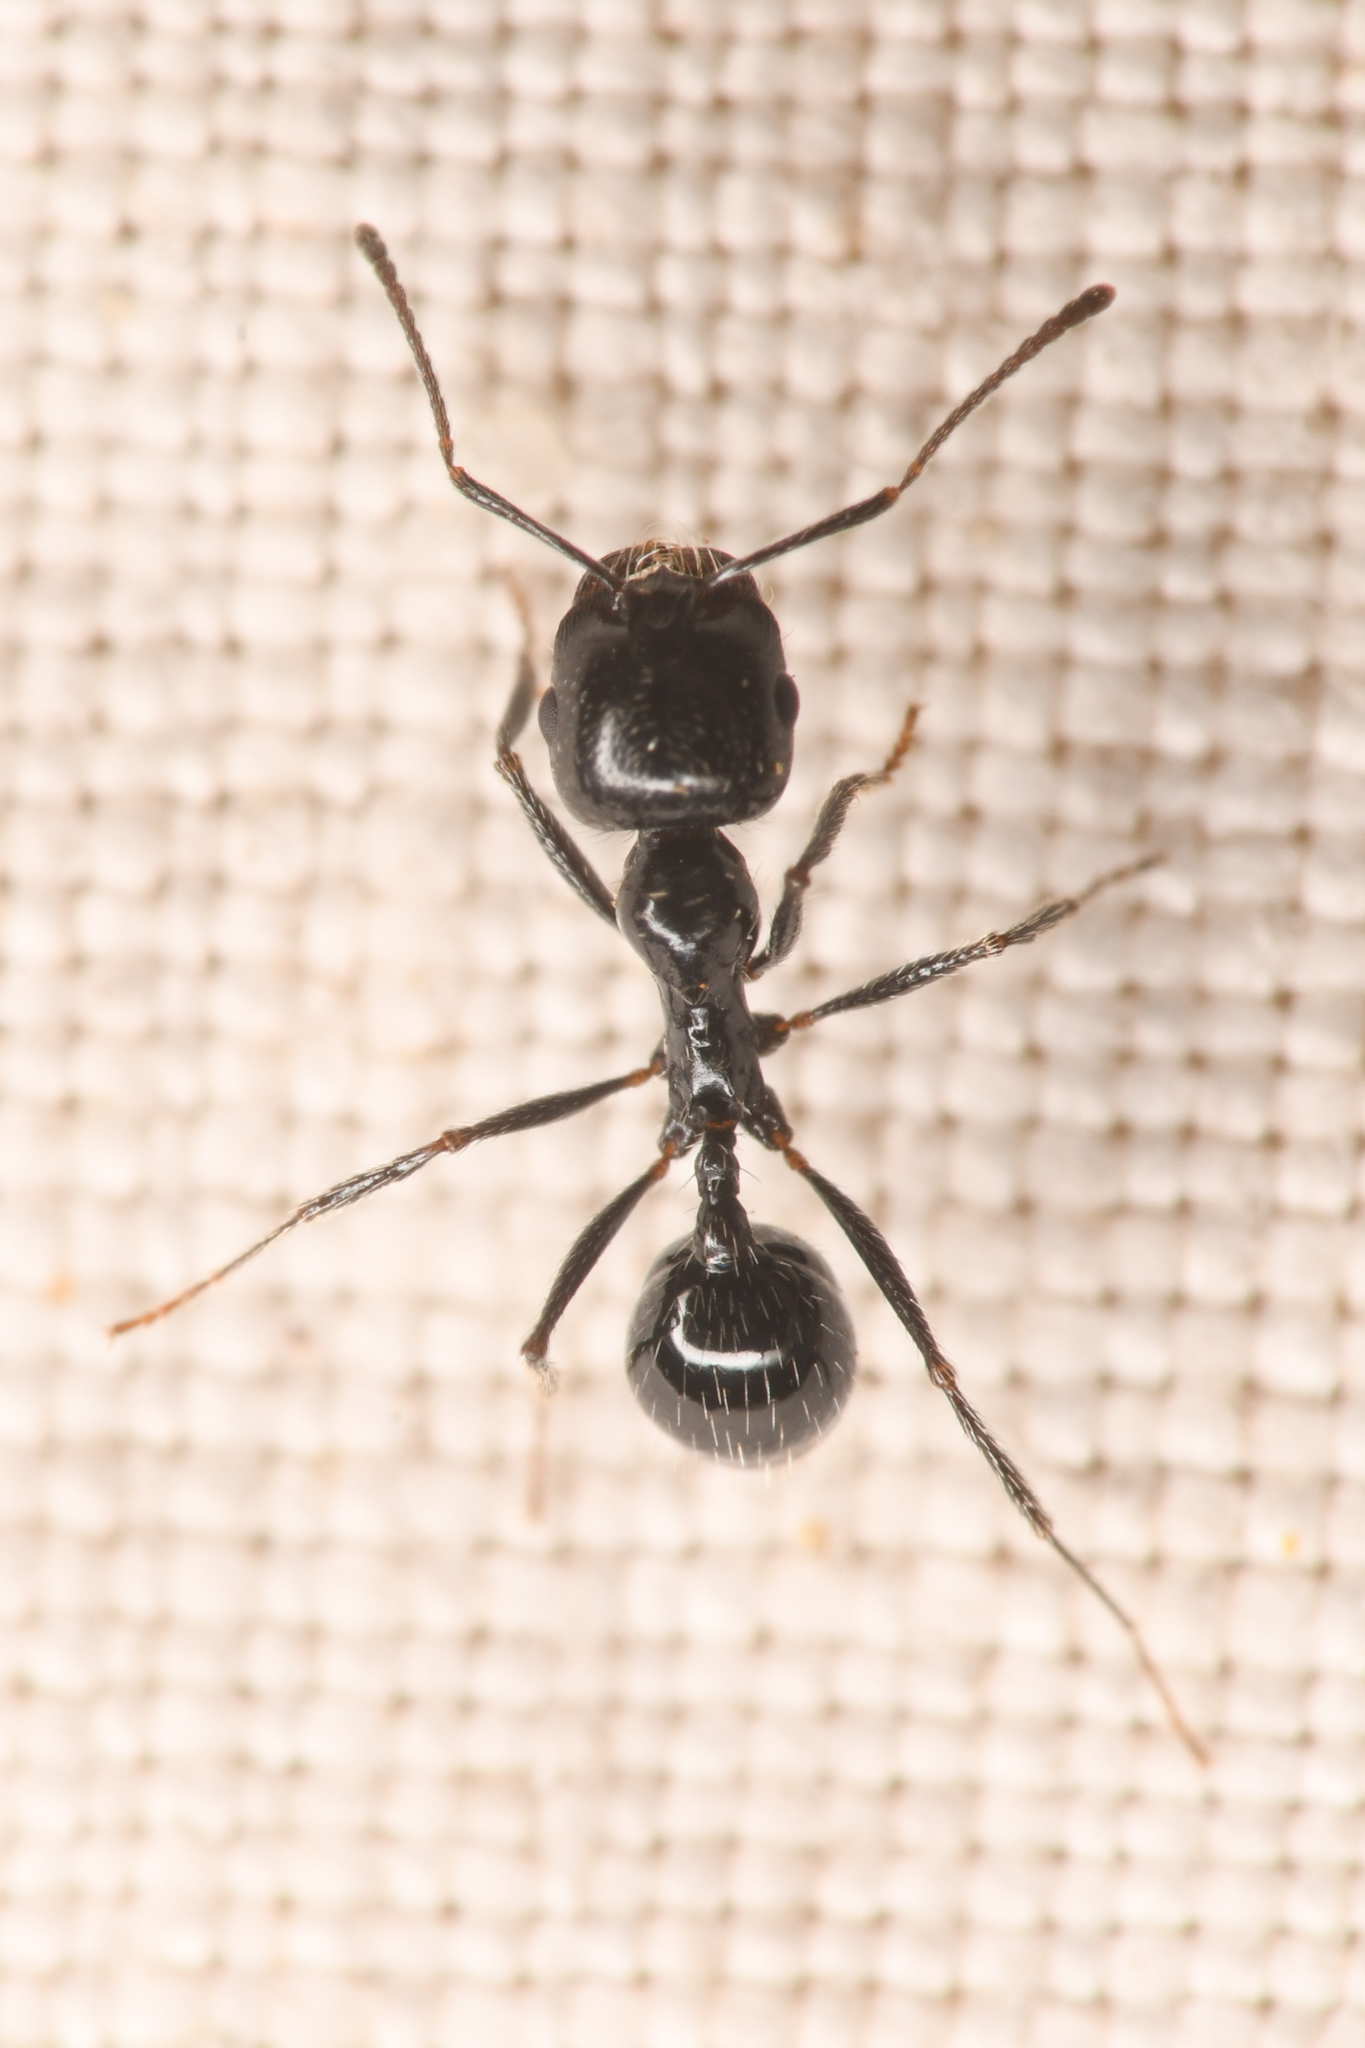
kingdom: Animalia
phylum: Arthropoda
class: Insecta
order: Hymenoptera
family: Formicidae
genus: Messor
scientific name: Messor pergandei
